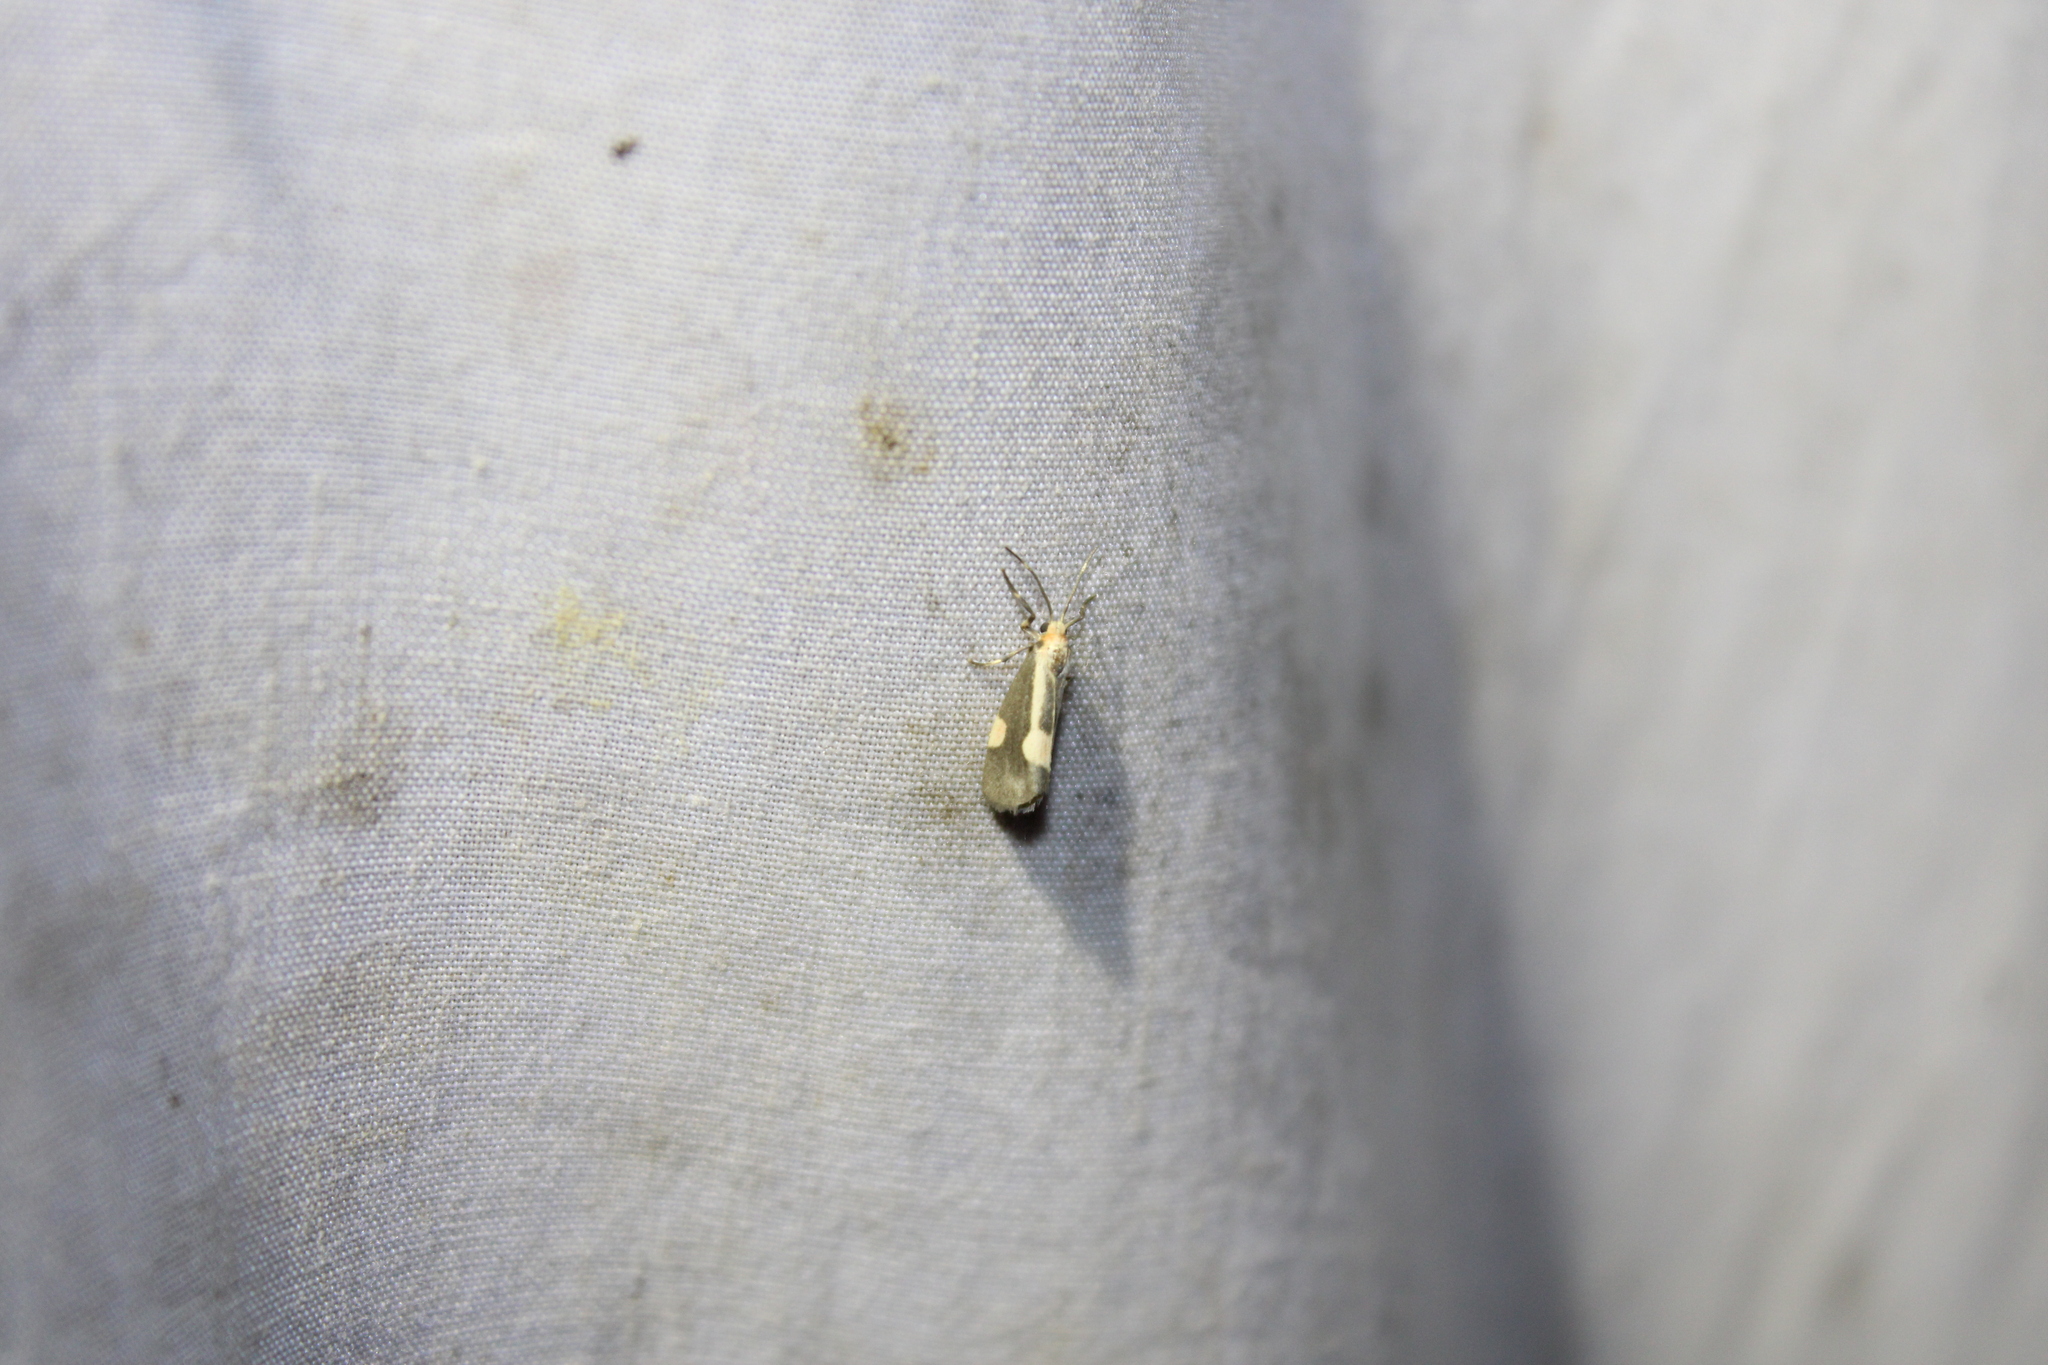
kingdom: Animalia
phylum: Arthropoda
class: Insecta
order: Lepidoptera
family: Erebidae
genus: Cisthene
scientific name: Cisthene packardii
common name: Packard's lichen moth
